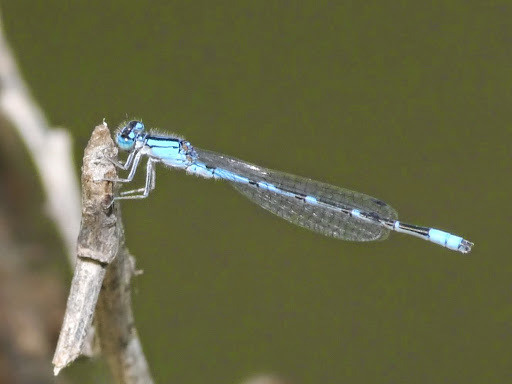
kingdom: Animalia
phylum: Arthropoda
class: Insecta
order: Odonata
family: Coenagrionidae
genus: Enallagma
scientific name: Enallagma praevarum
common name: Arroyo bluet
